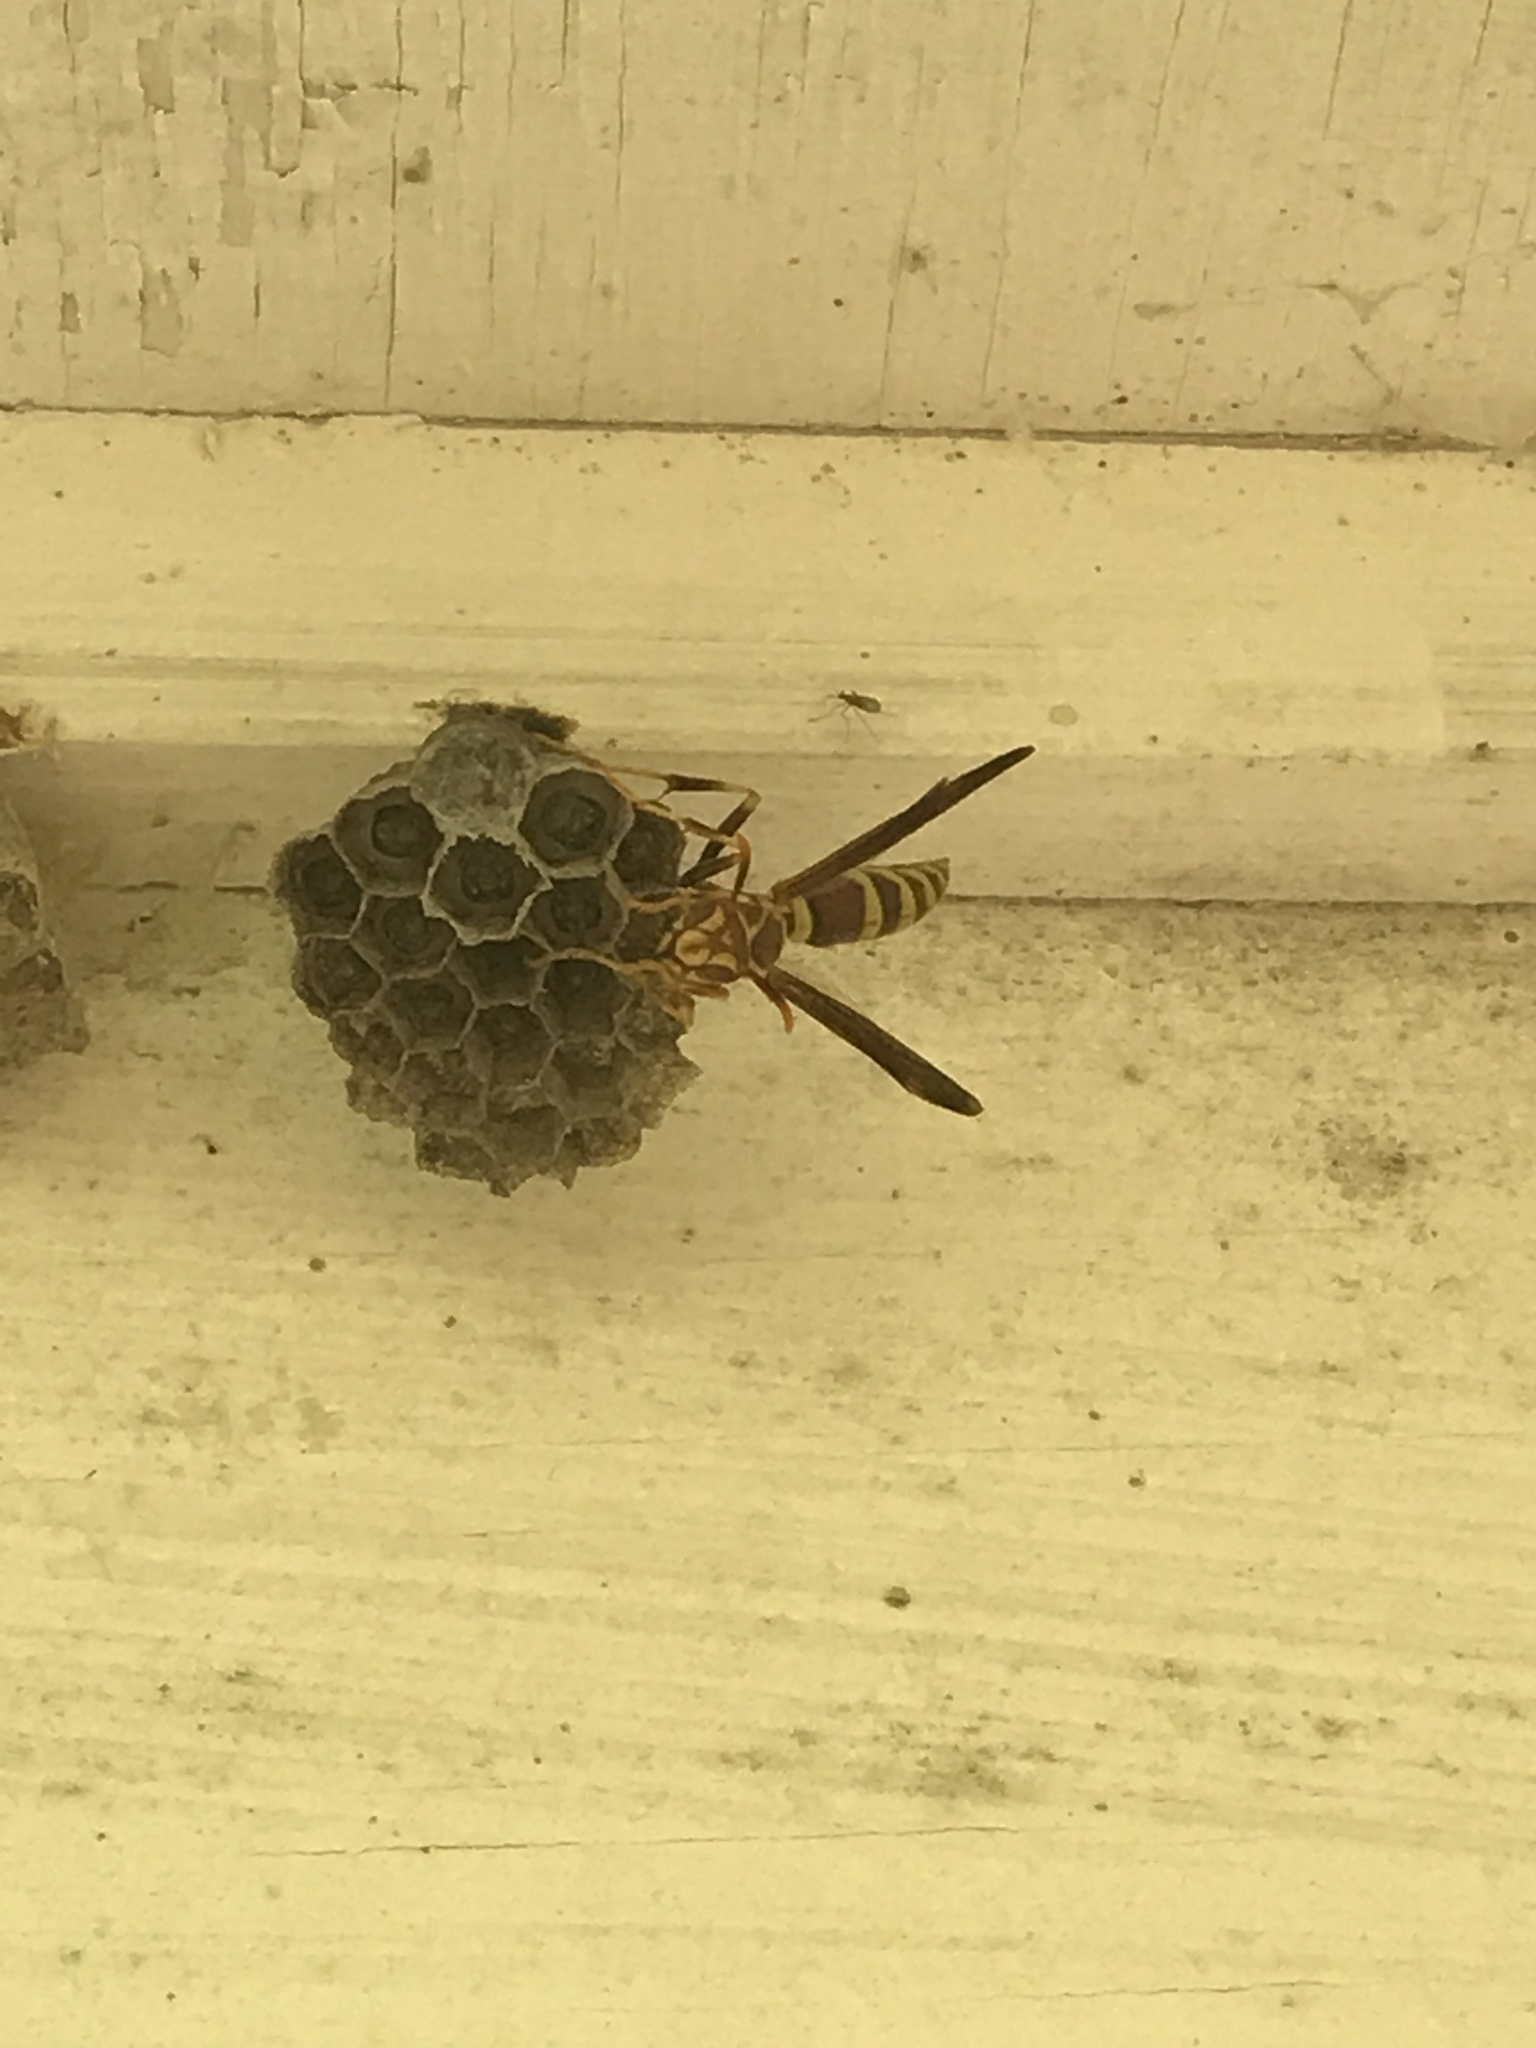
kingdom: Animalia
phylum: Arthropoda
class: Insecta
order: Hymenoptera
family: Eumenidae
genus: Polistes
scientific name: Polistes exclamans
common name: Paper wasp
